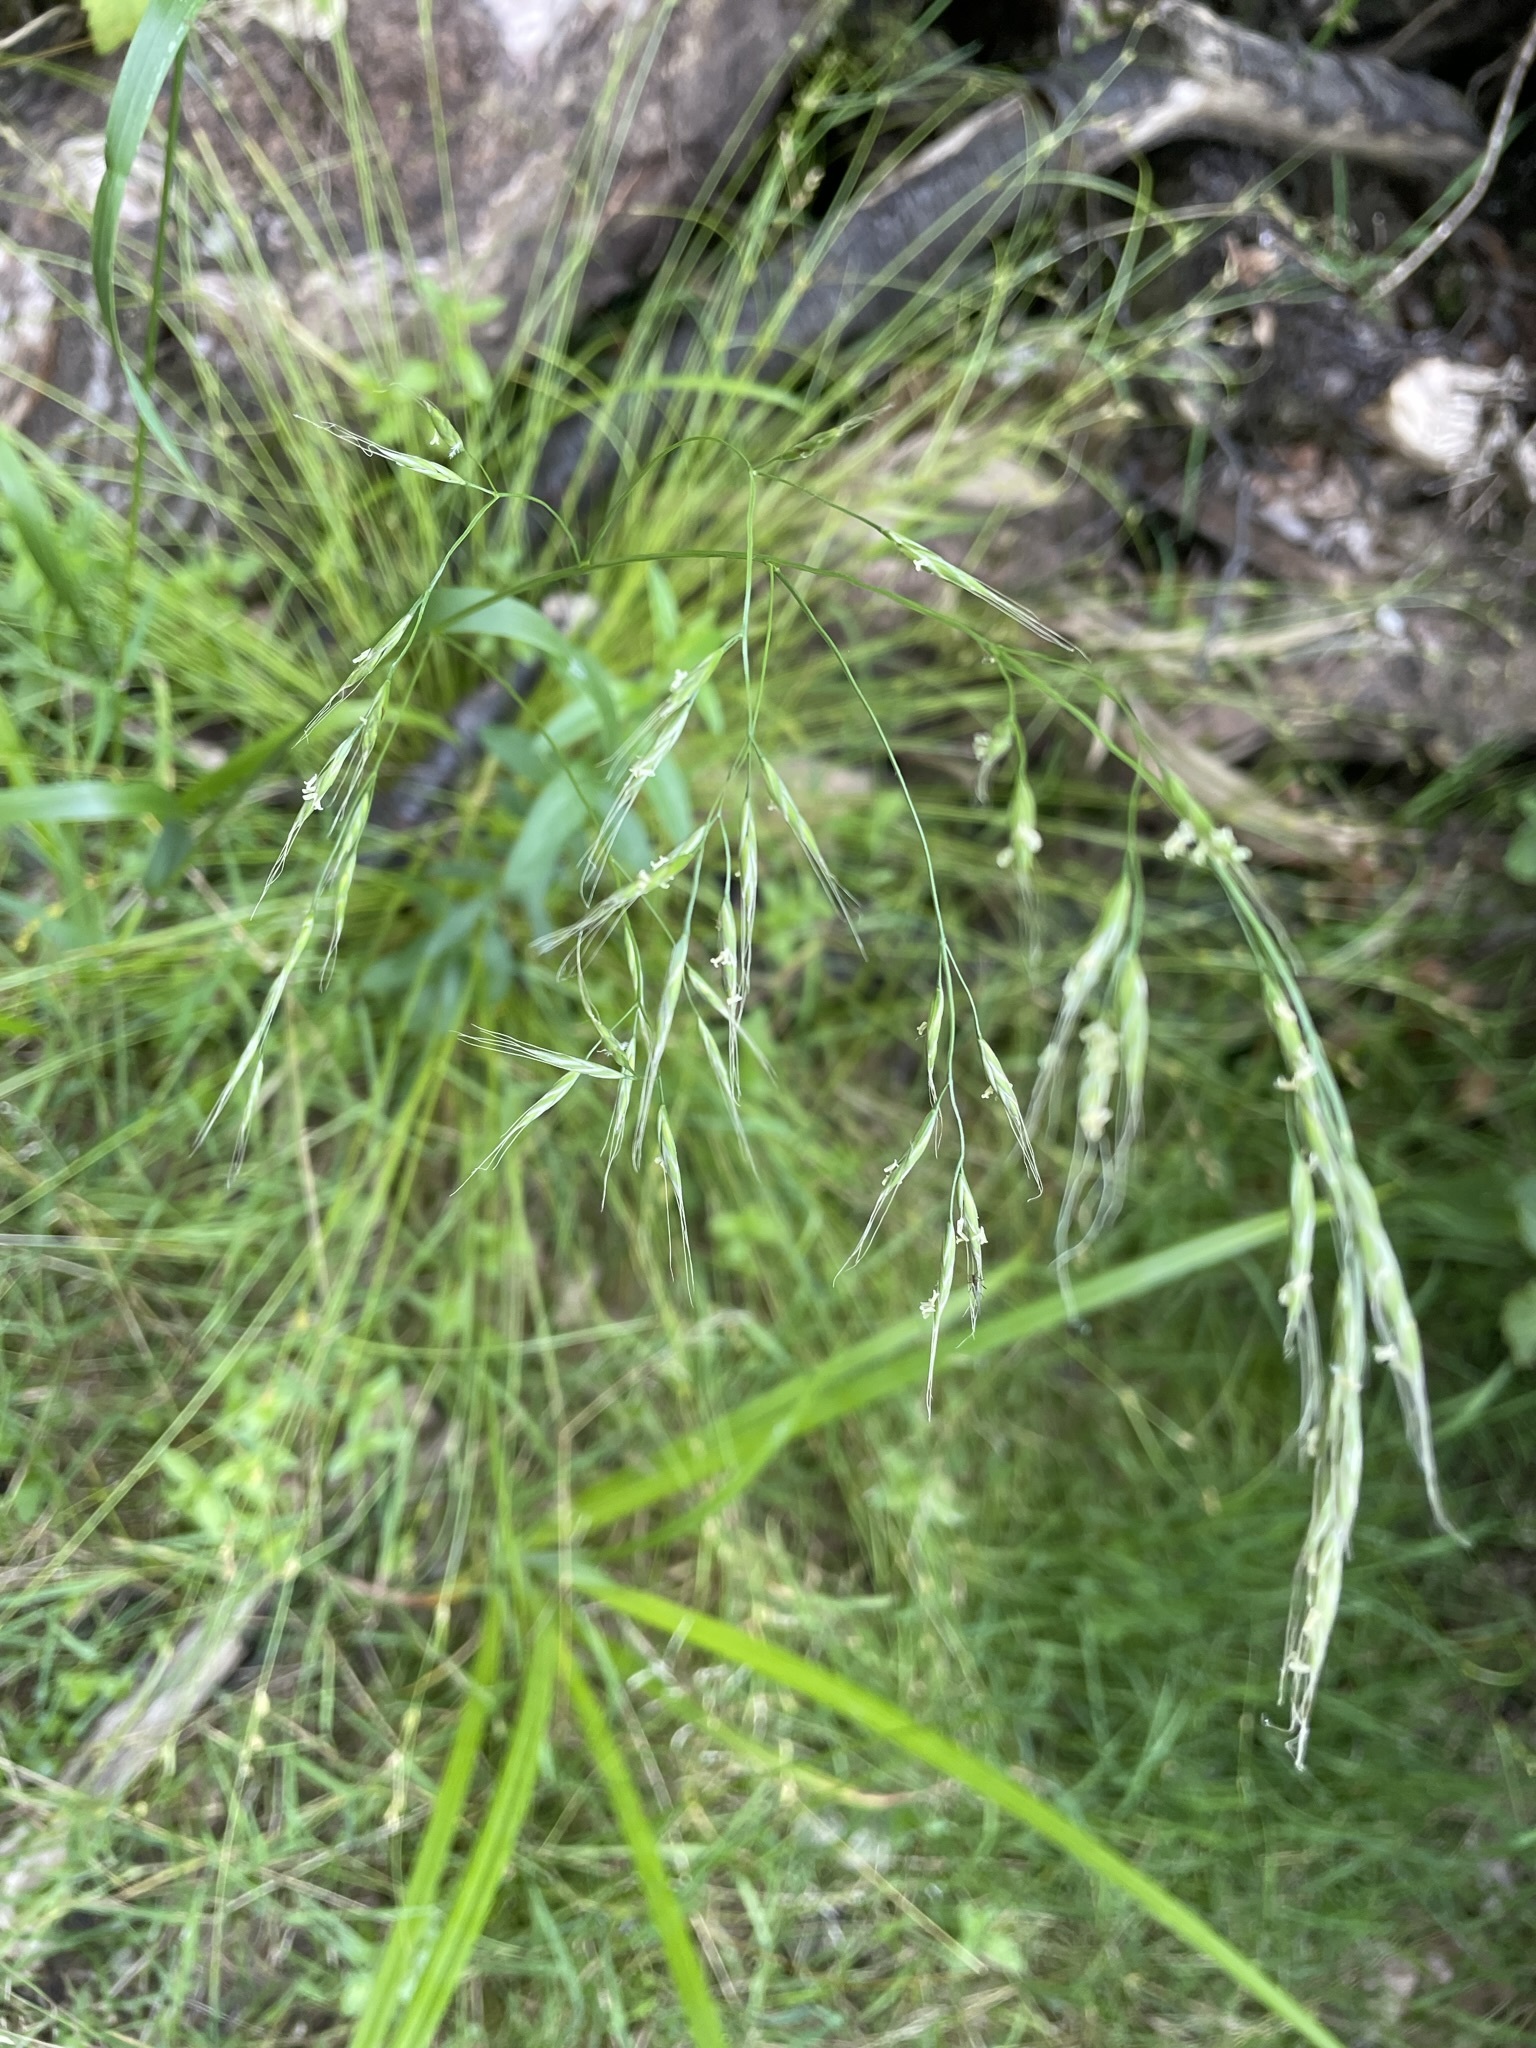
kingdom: Plantae
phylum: Tracheophyta
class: Liliopsida
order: Poales
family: Poaceae
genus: Lolium
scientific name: Lolium giganteum
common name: Giant fescue
